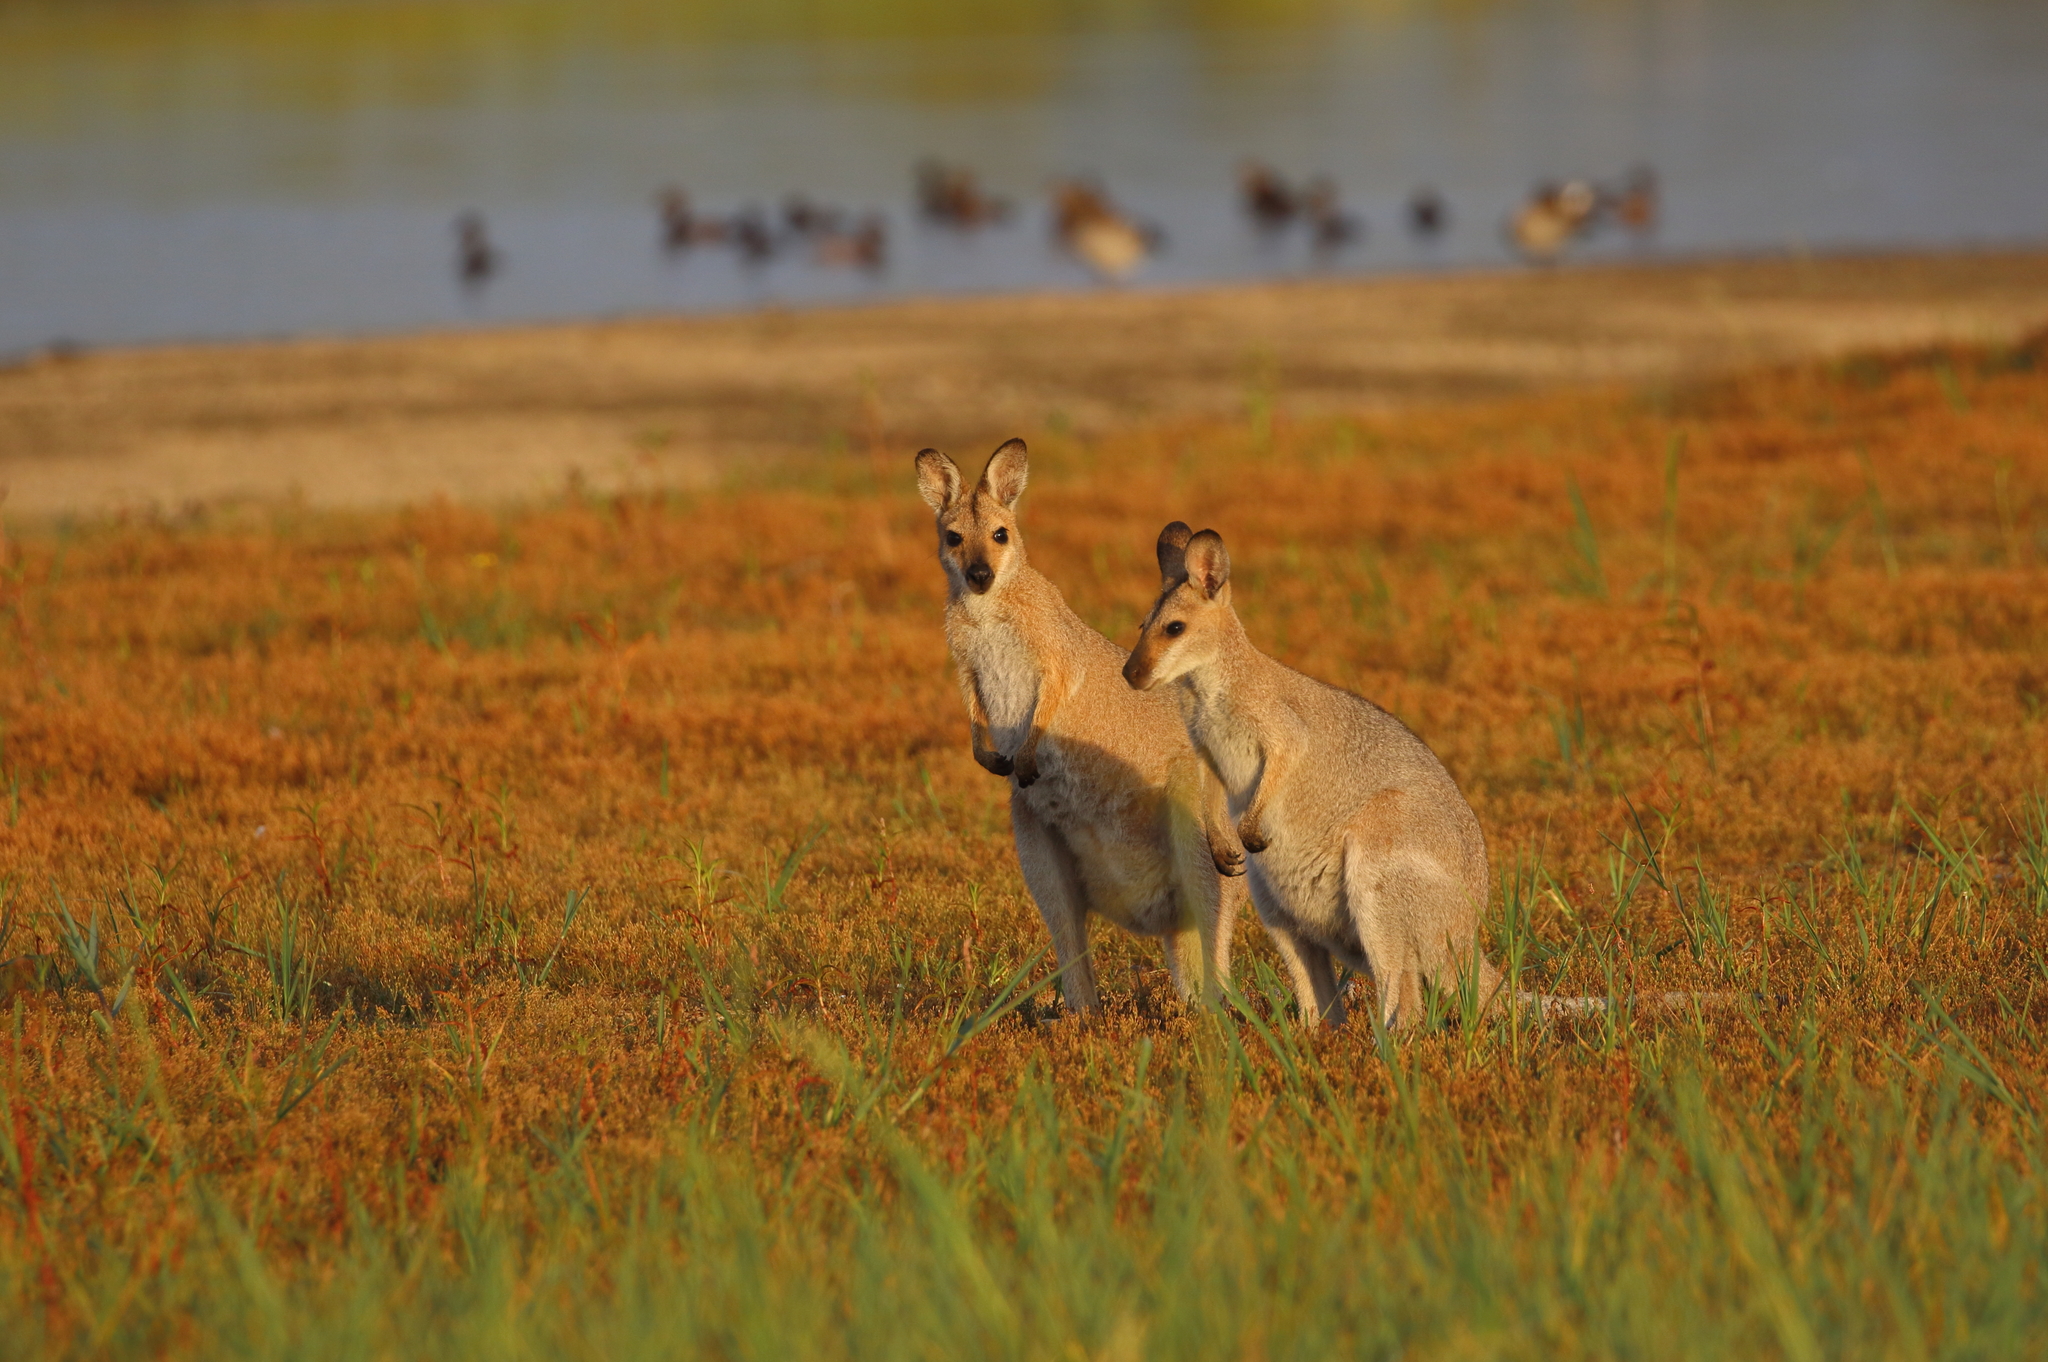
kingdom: Animalia
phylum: Chordata
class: Mammalia
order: Diprotodontia
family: Macropodidae
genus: Notamacropus
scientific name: Notamacropus rufogriseus
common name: Red-necked wallaby
